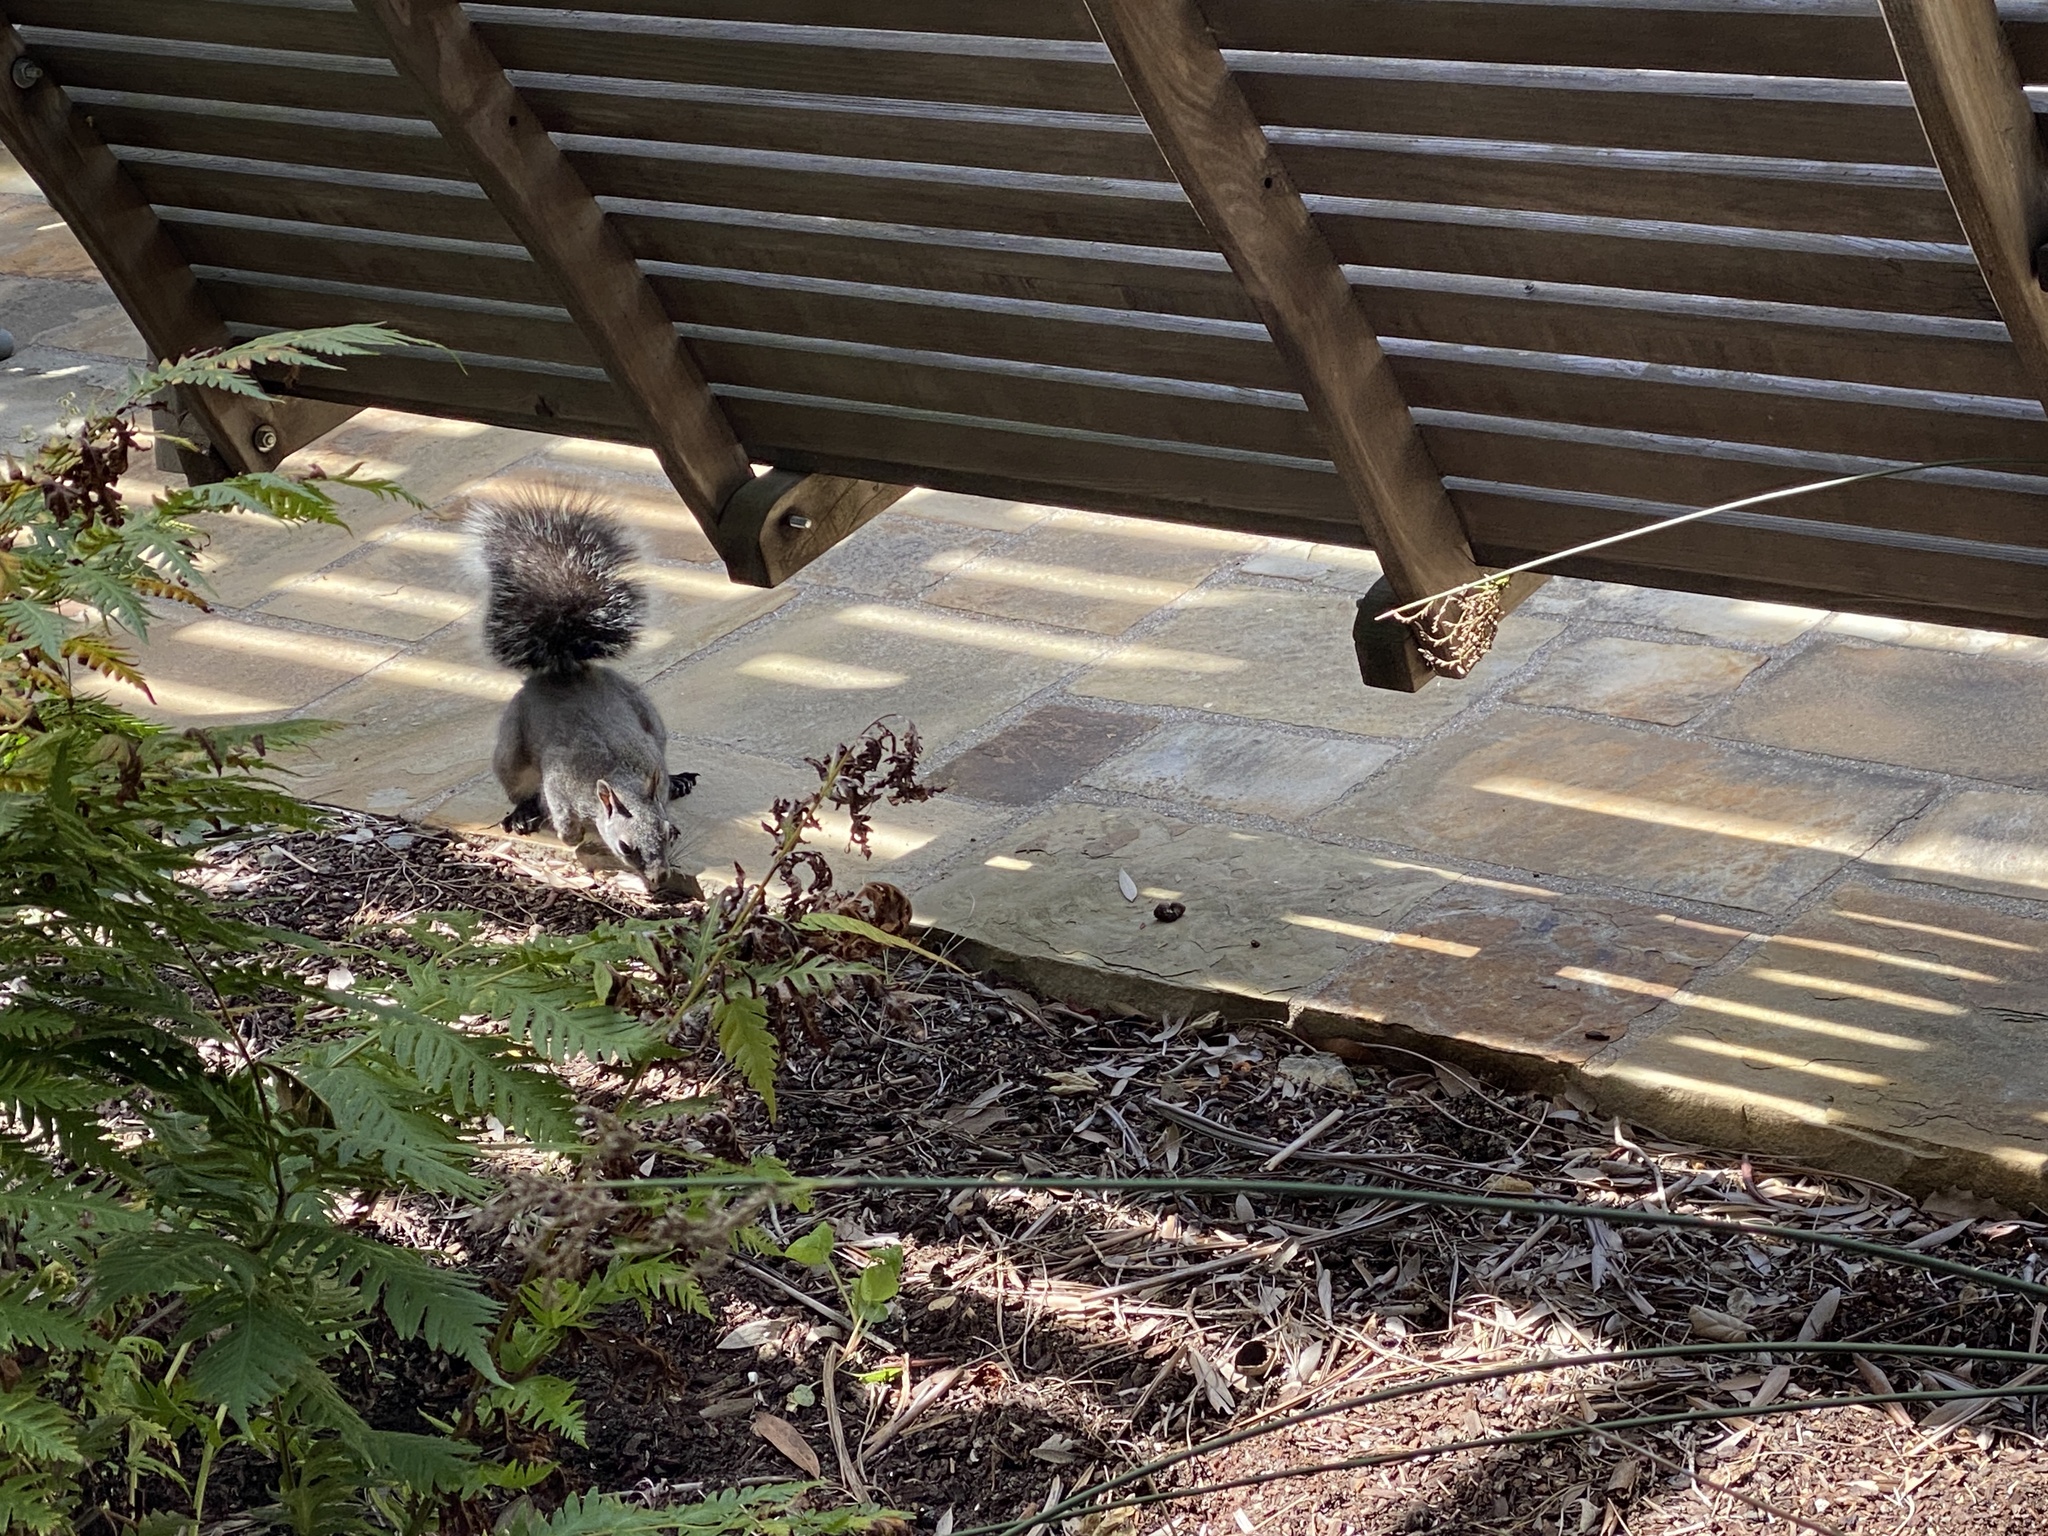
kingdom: Animalia
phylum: Chordata
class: Mammalia
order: Rodentia
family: Sciuridae
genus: Sciurus
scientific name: Sciurus griseus
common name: Western gray squirrel
